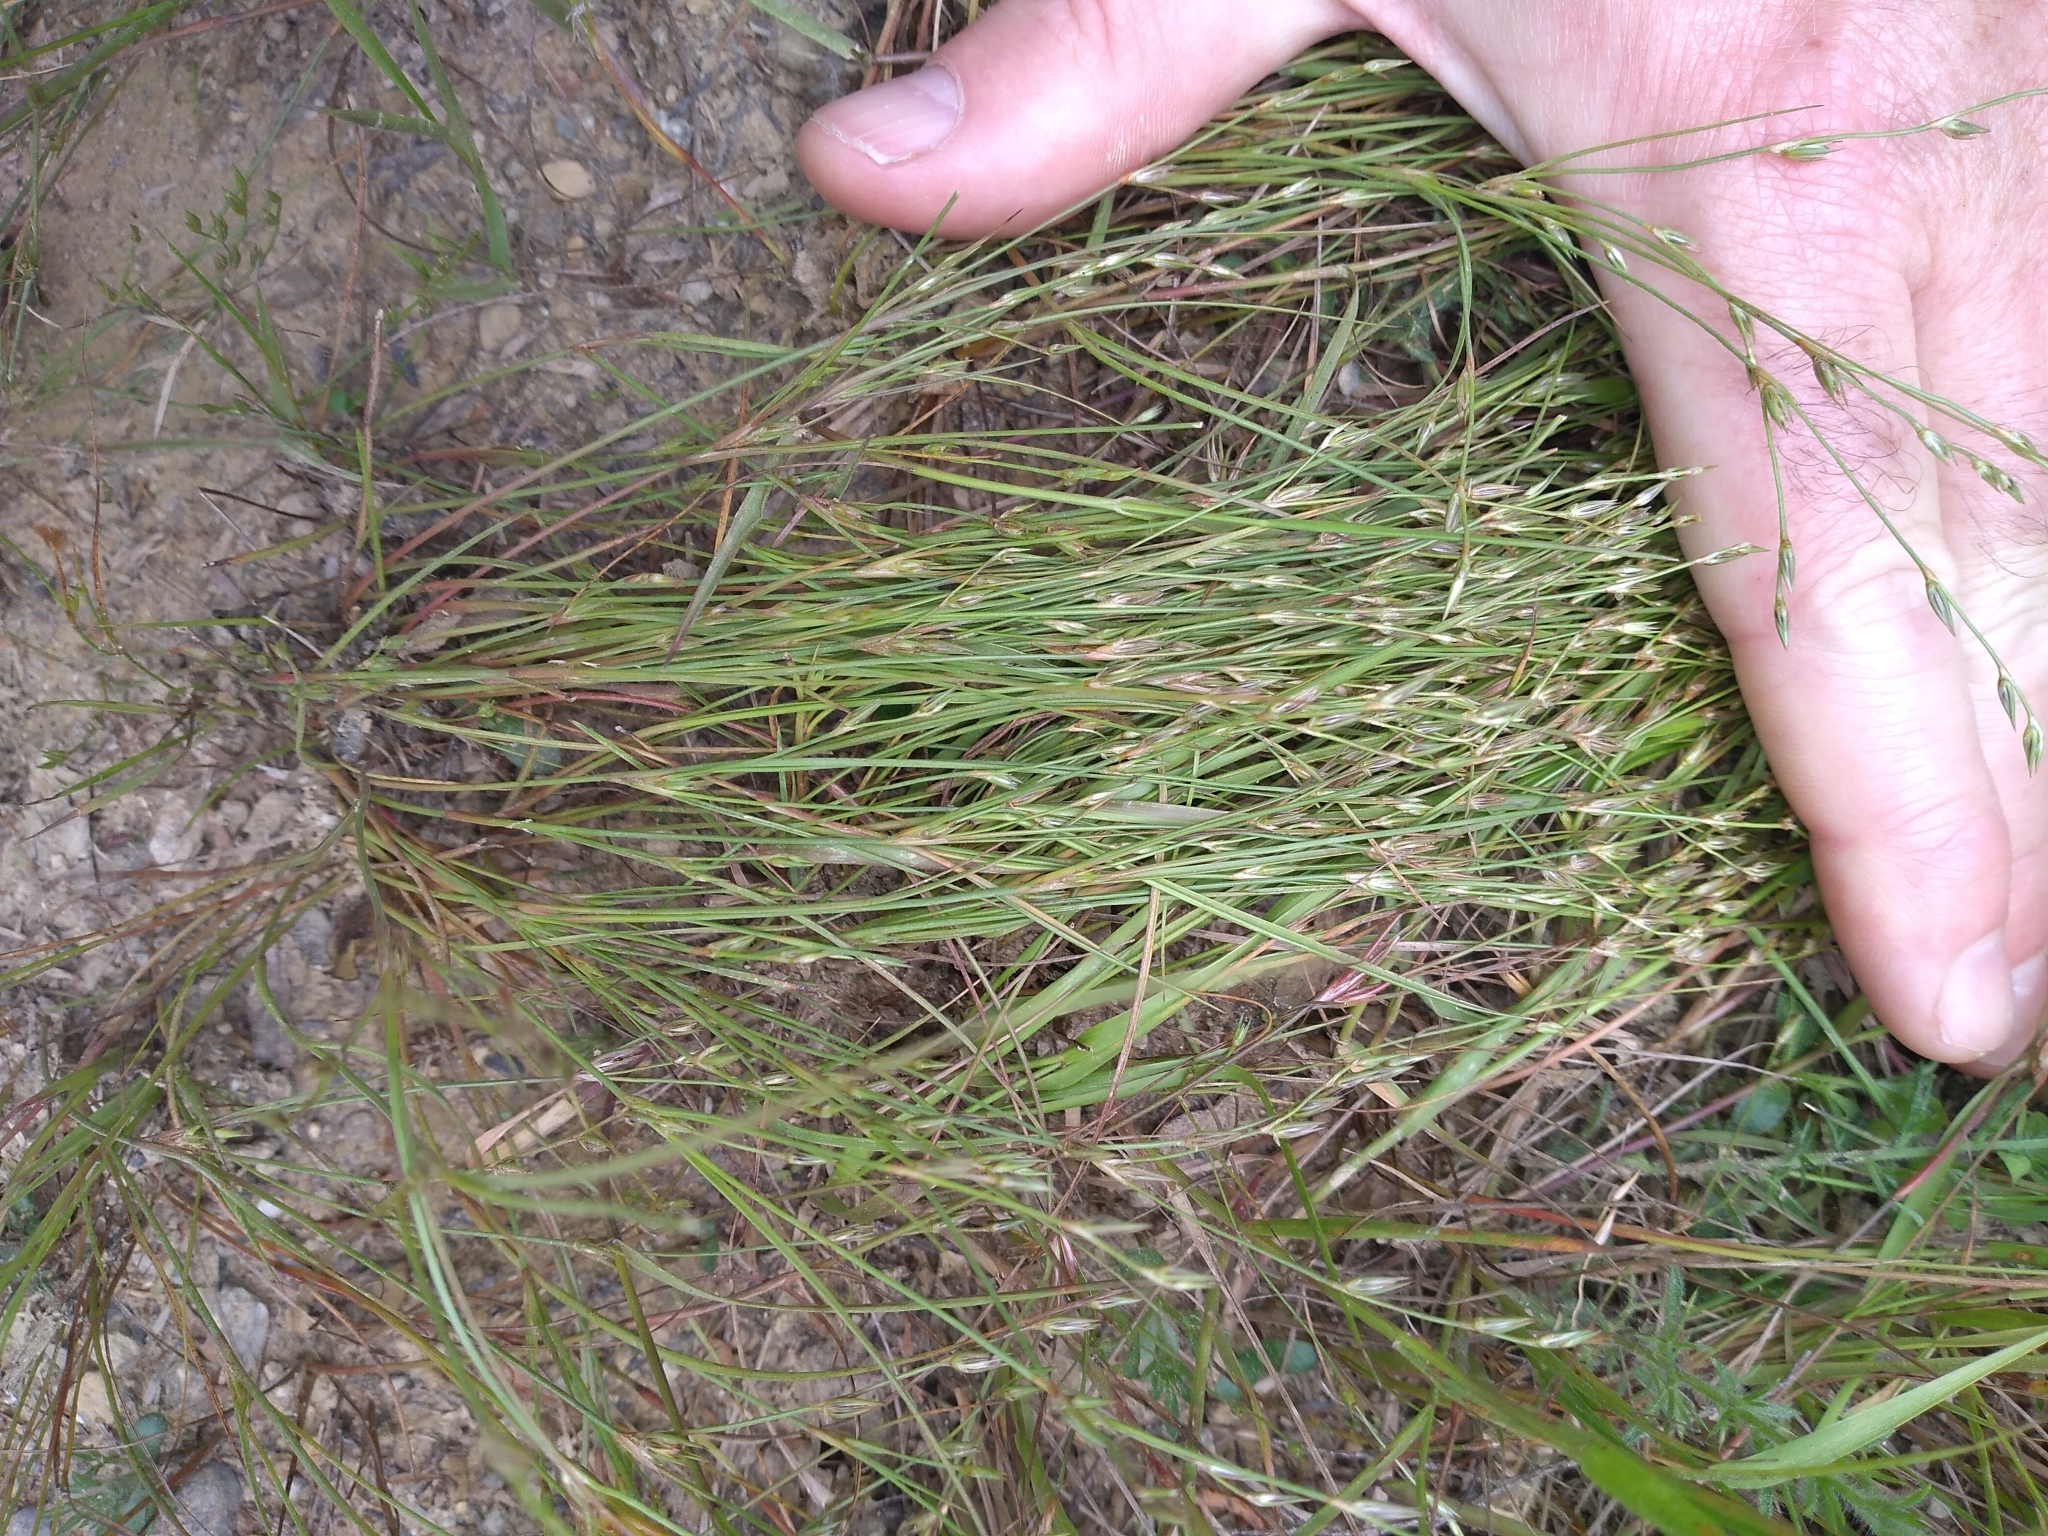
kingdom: Plantae
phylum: Tracheophyta
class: Liliopsida
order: Poales
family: Juncaceae
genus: Juncus
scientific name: Juncus bufonius
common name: Toad rush
